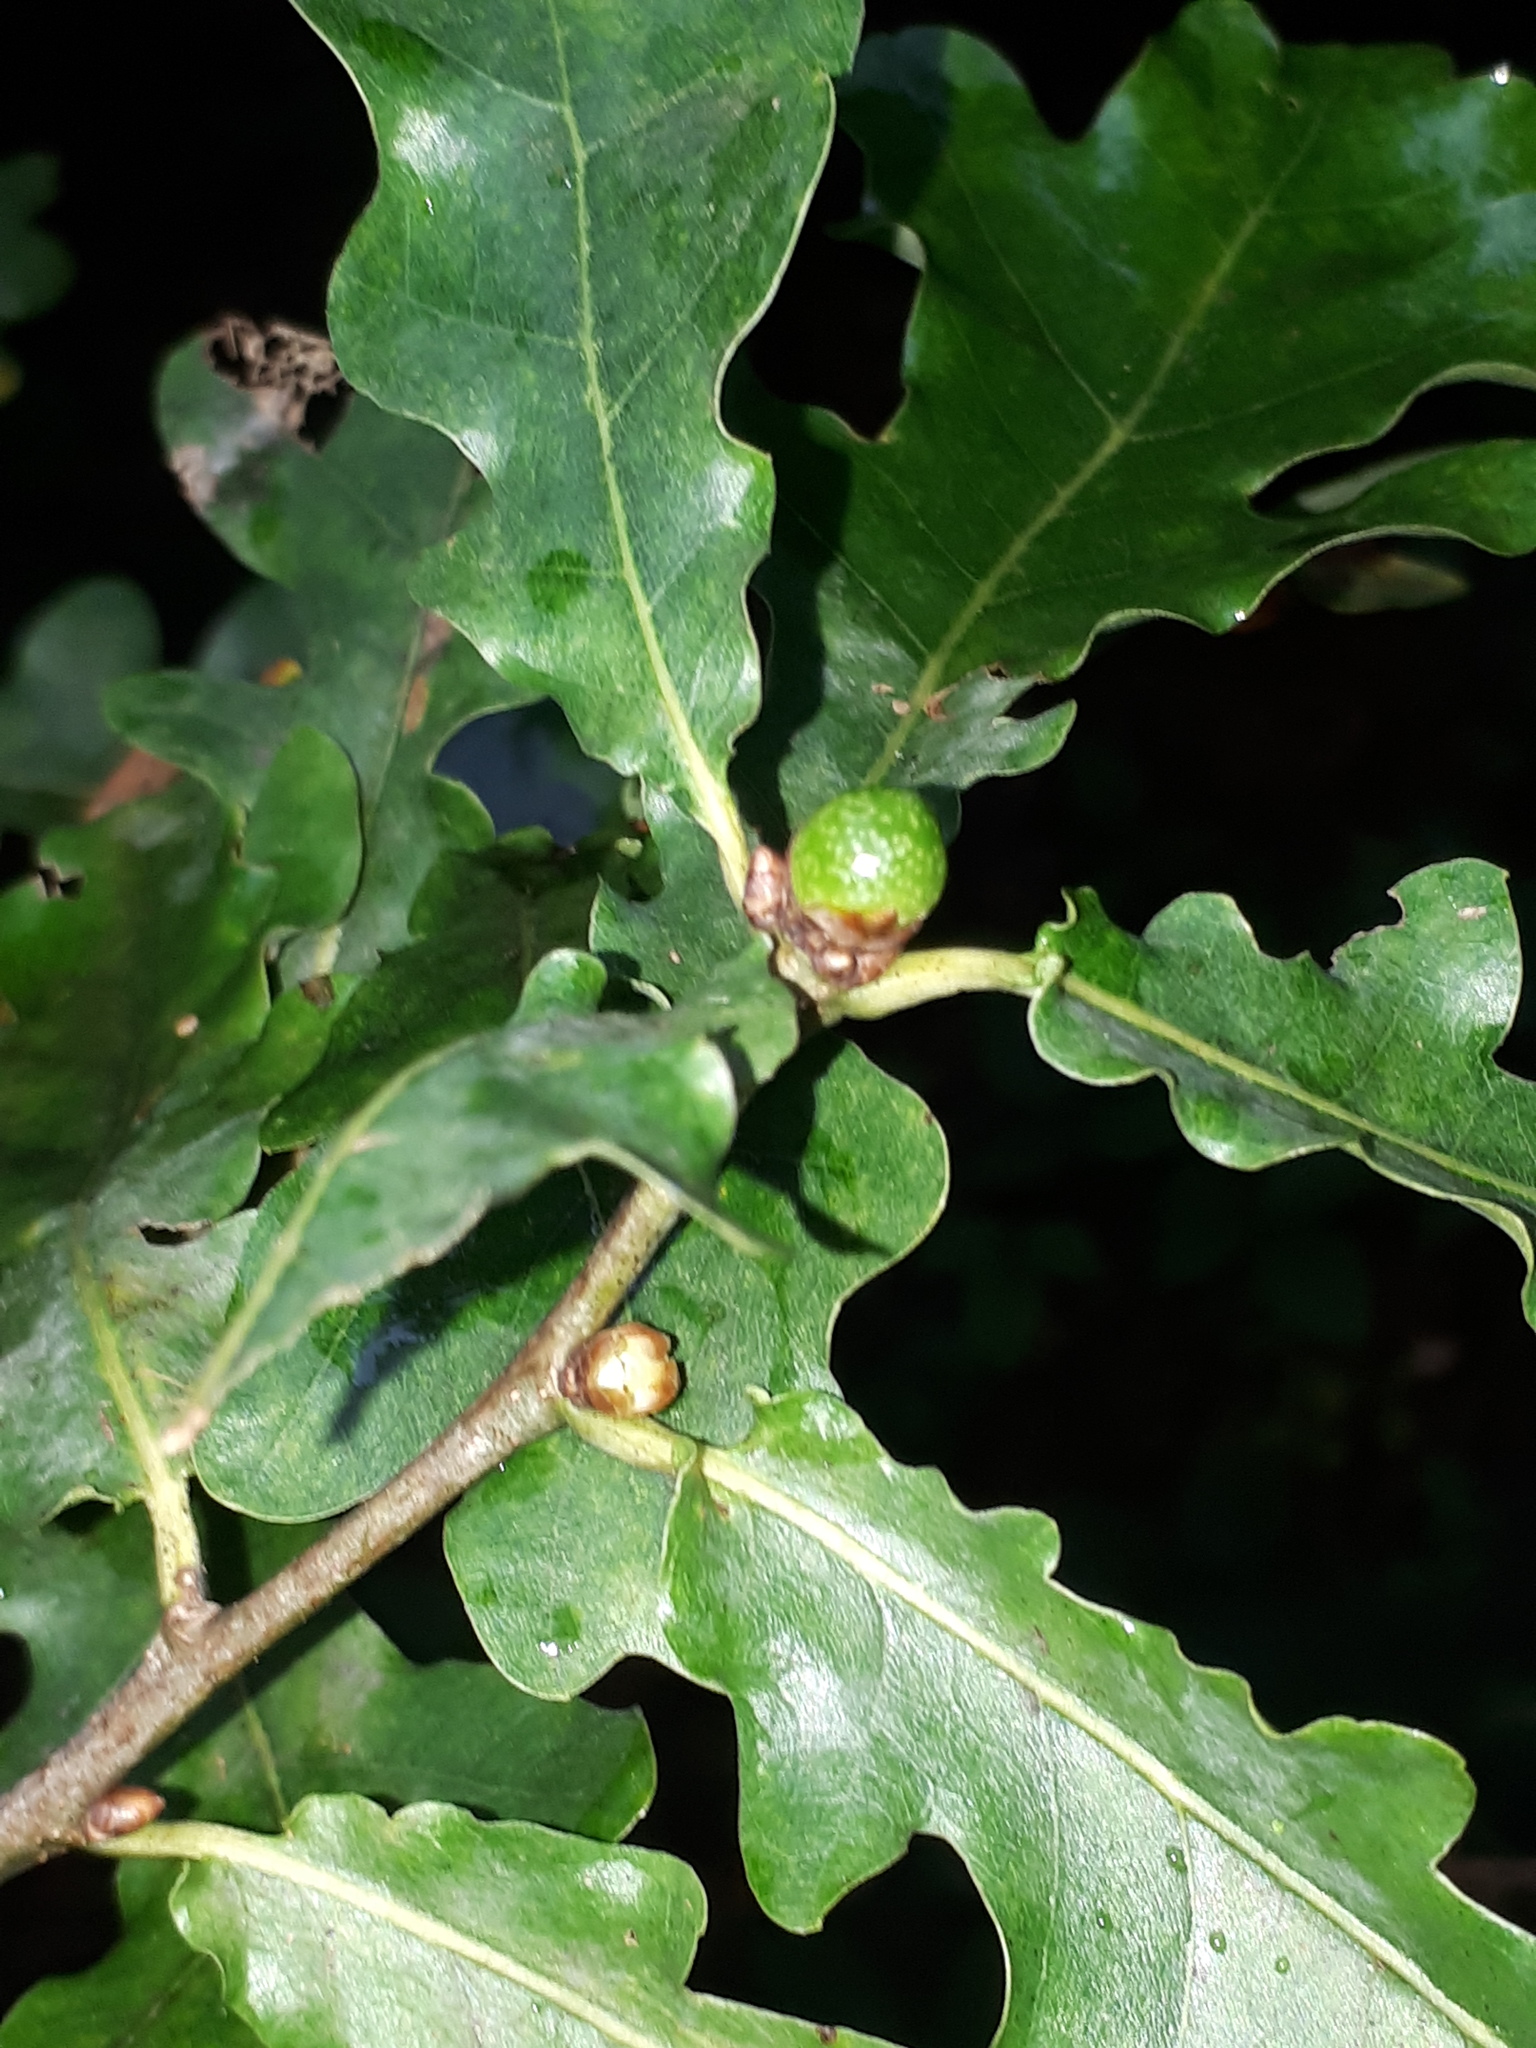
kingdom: Animalia
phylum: Arthropoda
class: Insecta
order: Hymenoptera
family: Cynipidae
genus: Andricus
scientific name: Andricus inflator
